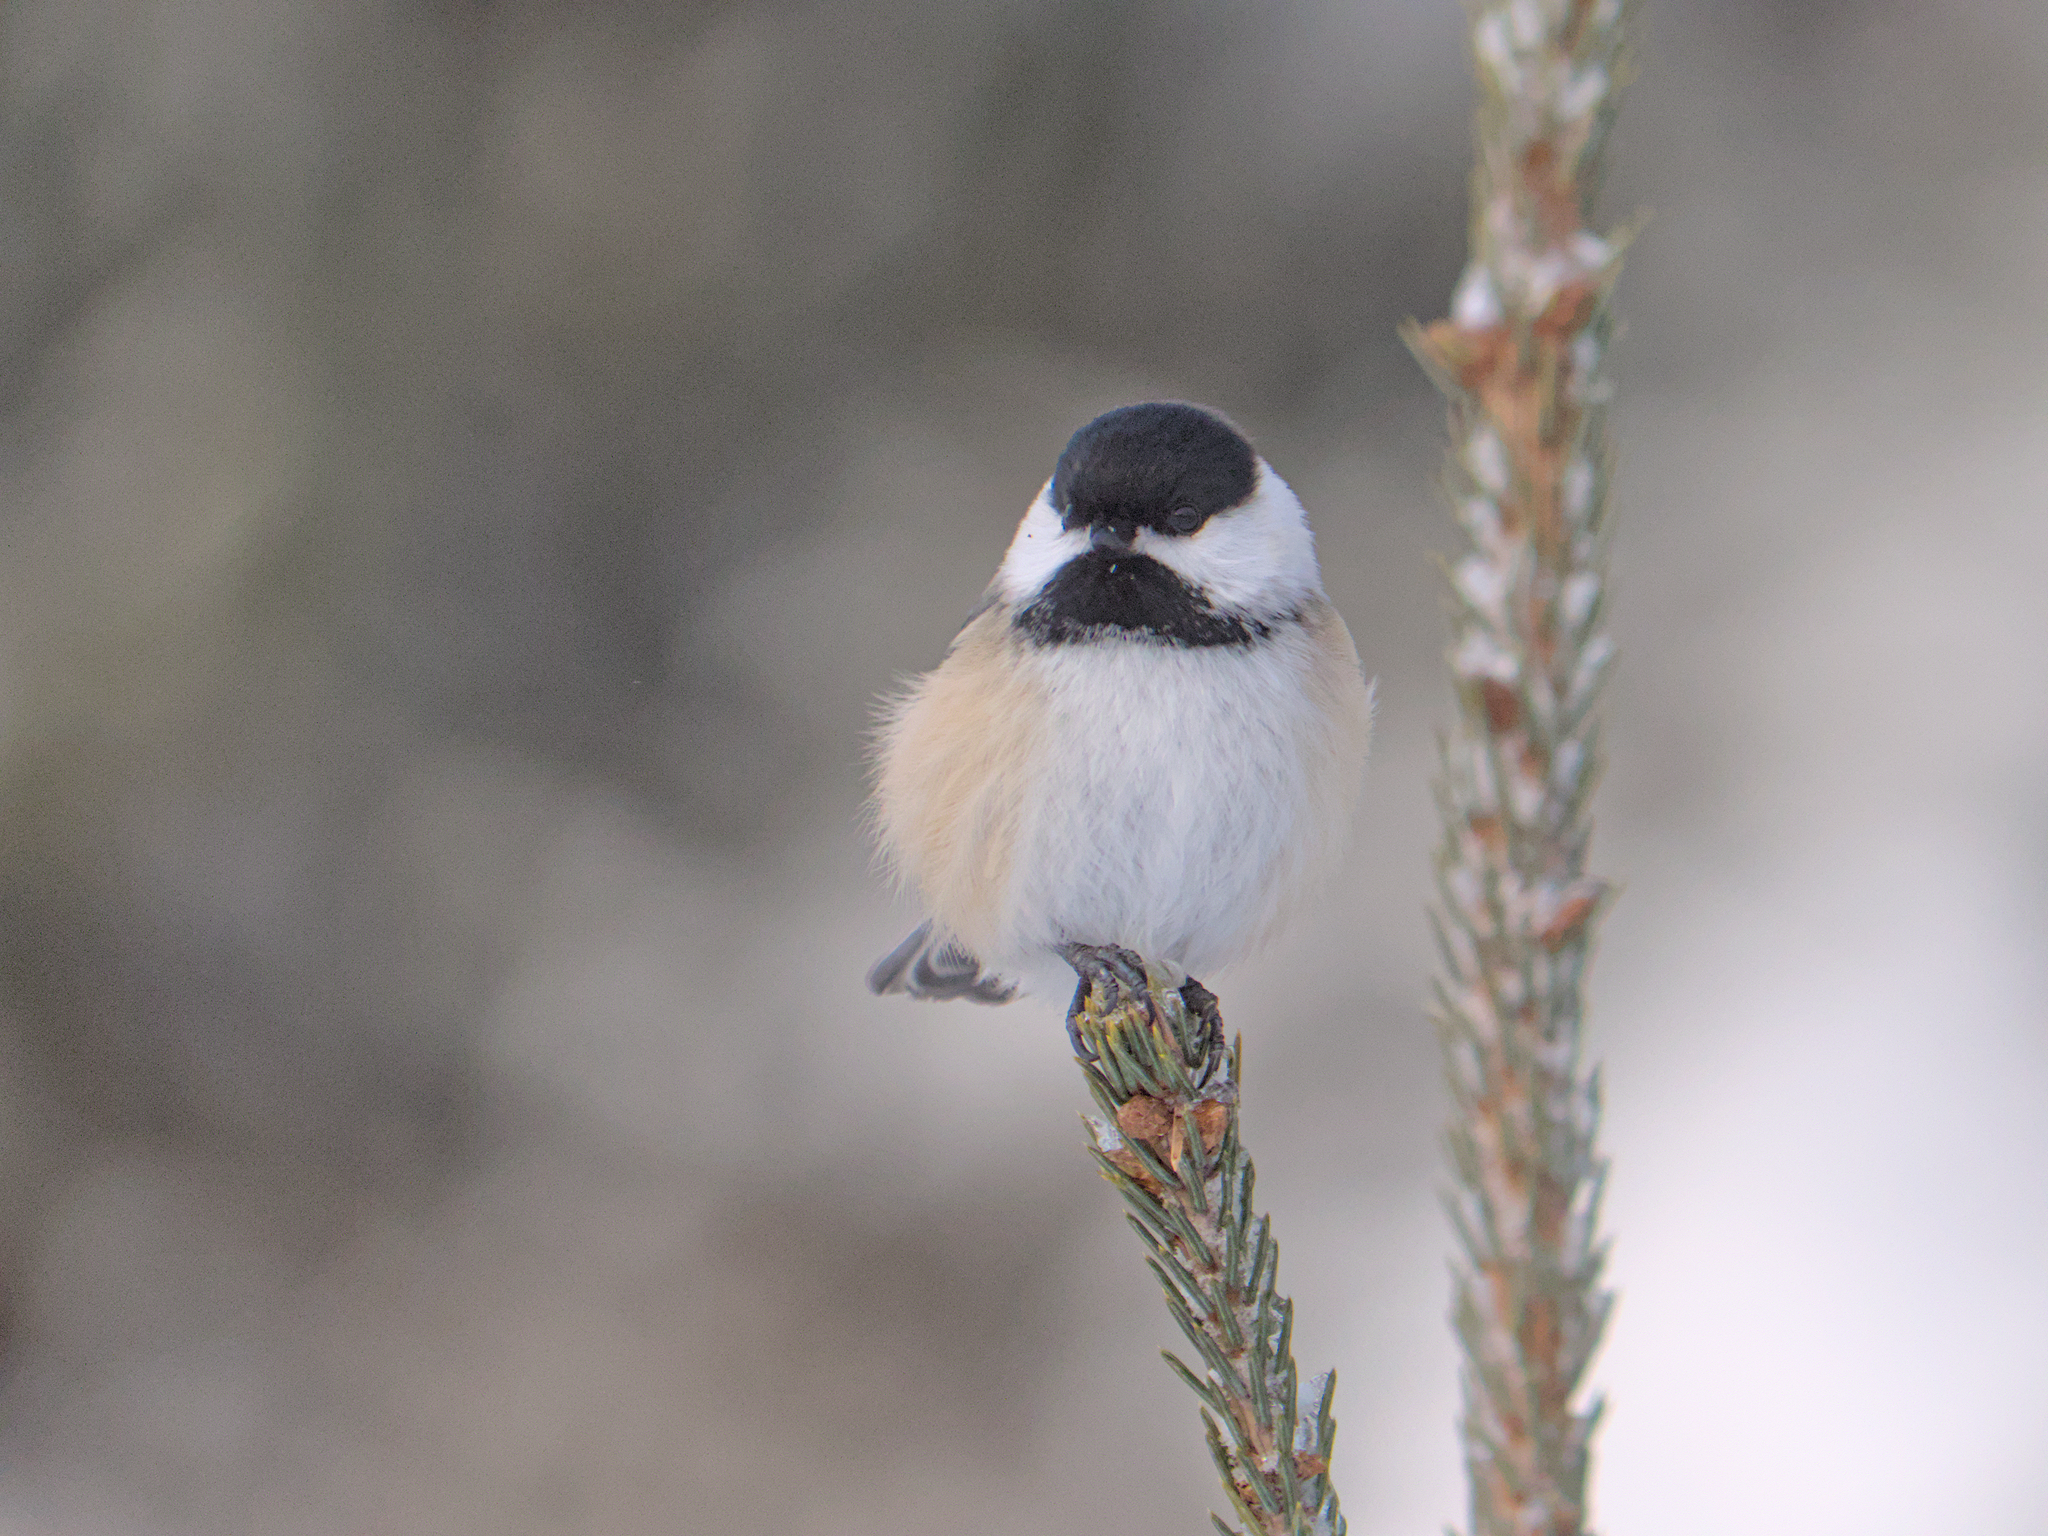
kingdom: Animalia
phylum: Chordata
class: Aves
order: Passeriformes
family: Paridae
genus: Poecile
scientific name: Poecile atricapillus
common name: Black-capped chickadee
